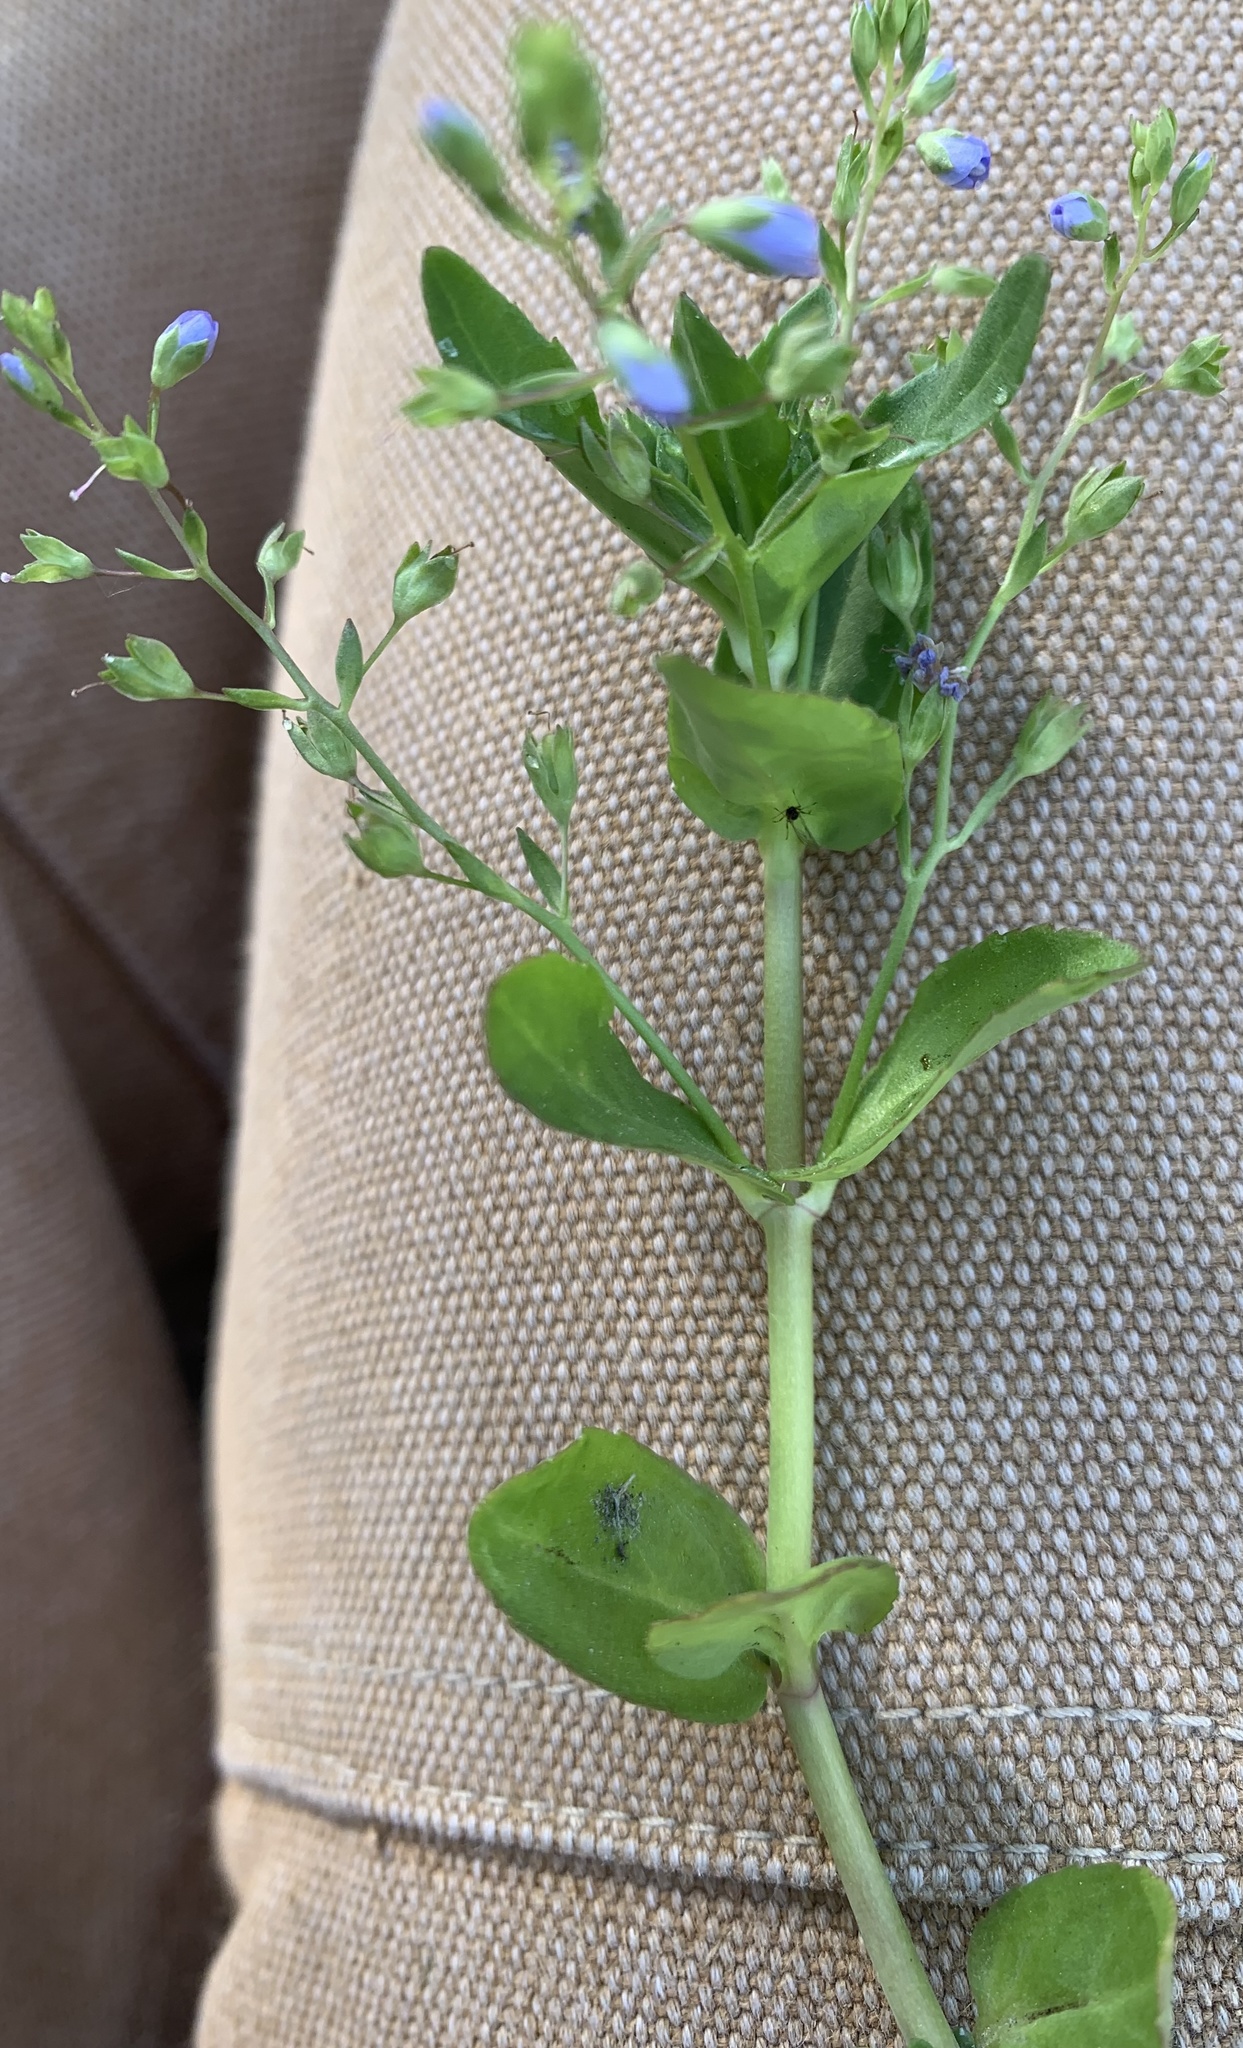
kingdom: Plantae
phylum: Tracheophyta
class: Magnoliopsida
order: Lamiales
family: Plantaginaceae
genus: Veronica
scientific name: Veronica americana
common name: American brooklime
